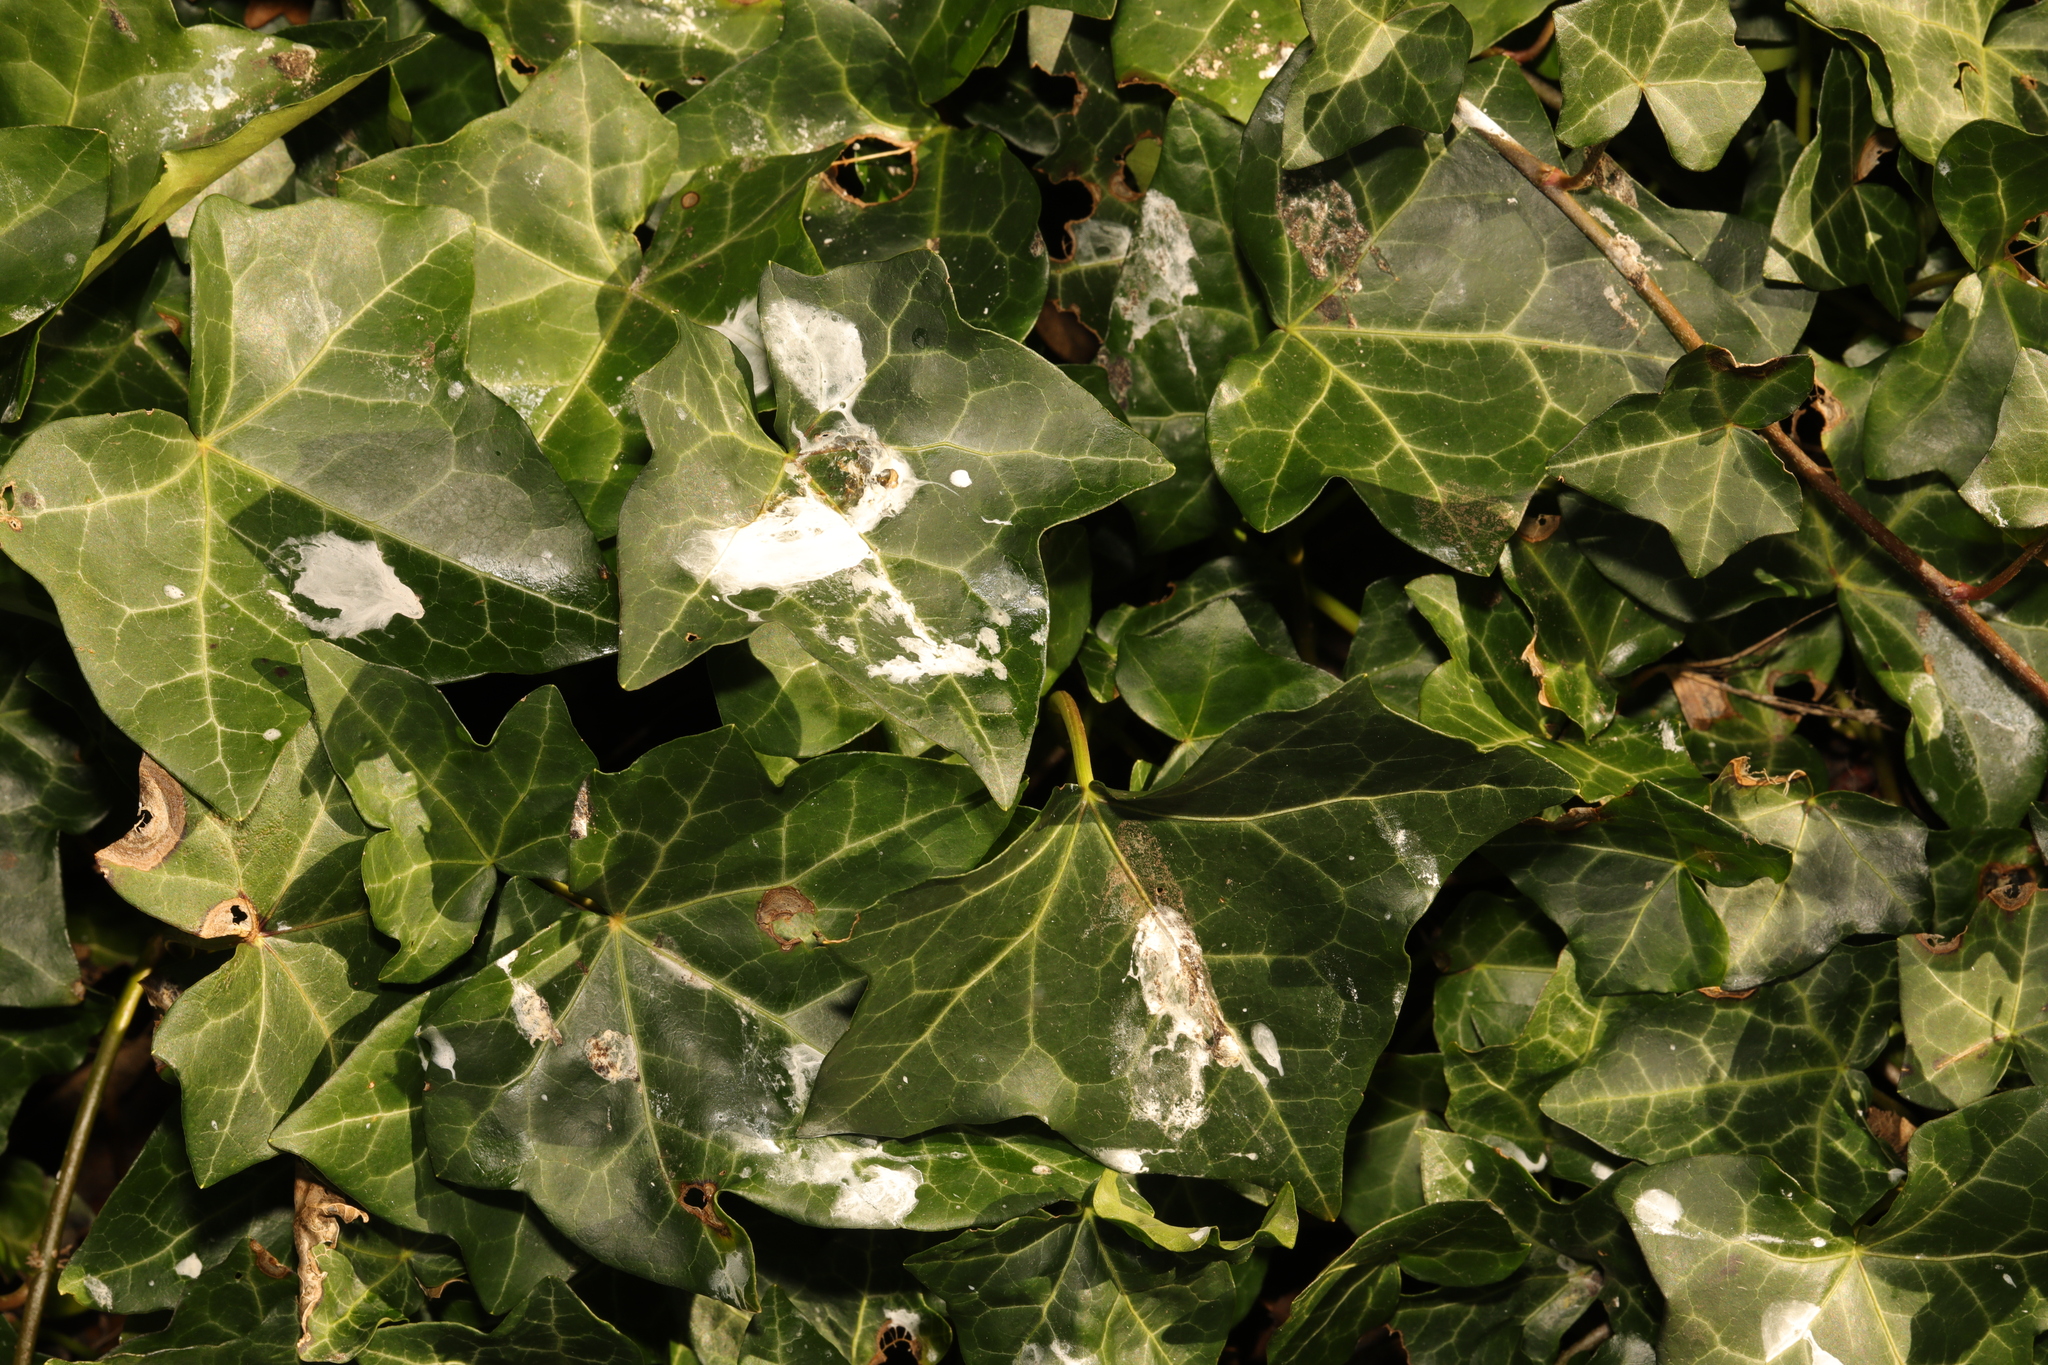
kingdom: Plantae
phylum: Tracheophyta
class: Magnoliopsida
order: Apiales
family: Araliaceae
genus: Hedera
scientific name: Hedera helix
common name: Ivy
